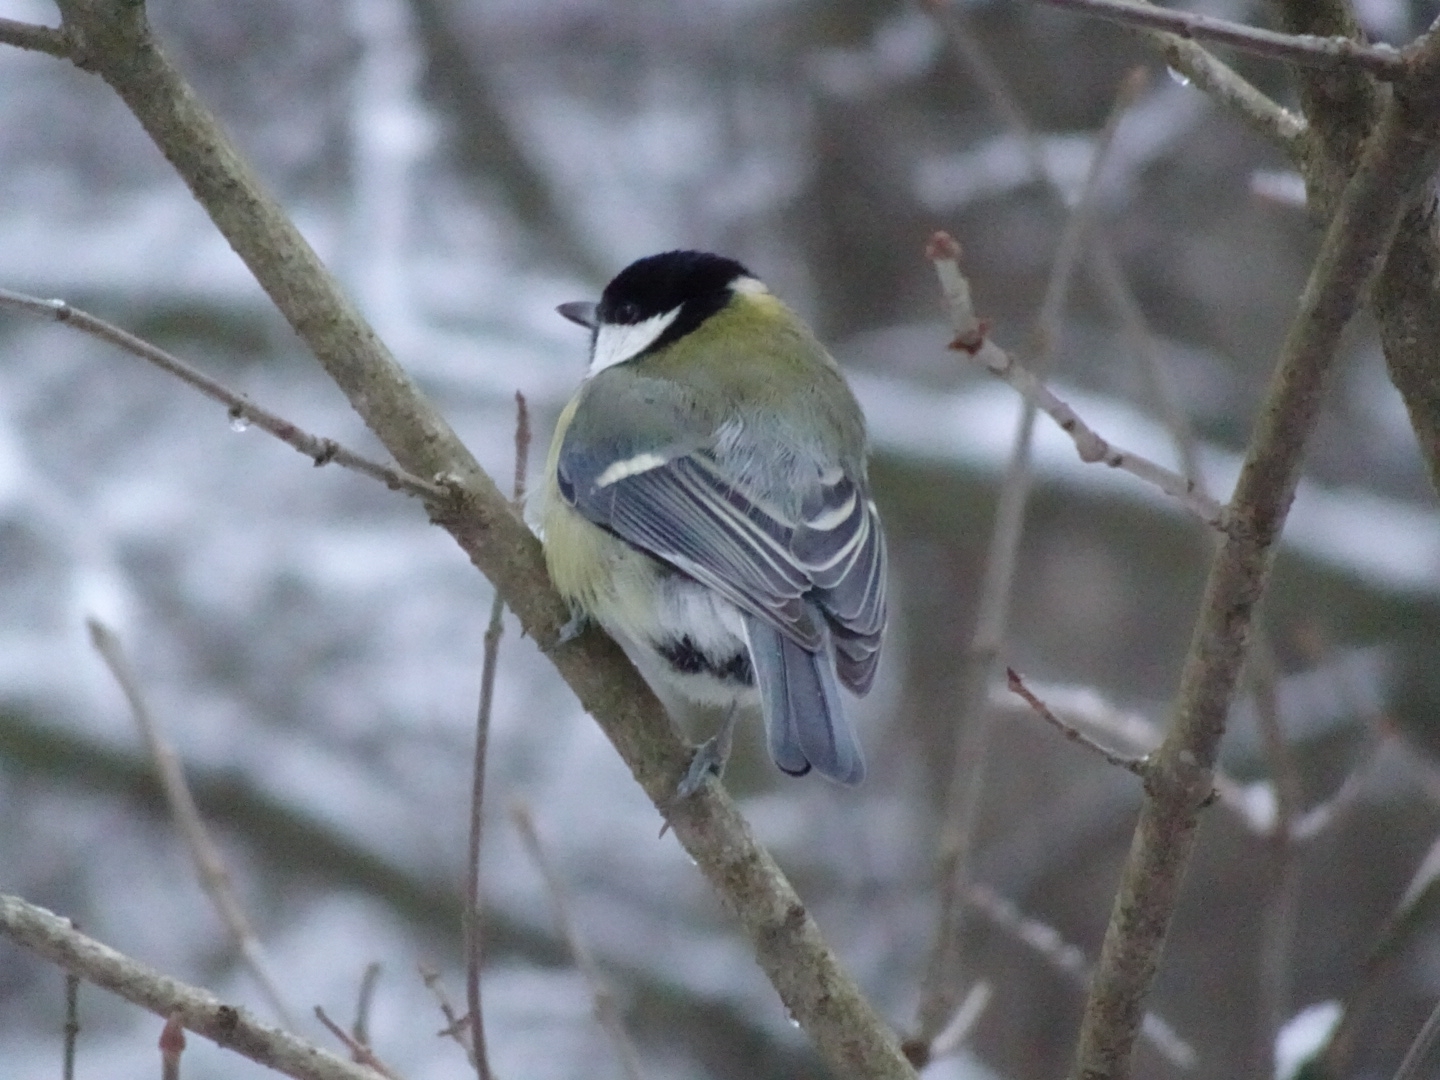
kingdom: Animalia
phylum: Chordata
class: Aves
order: Passeriformes
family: Paridae
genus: Parus
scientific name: Parus major
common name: Great tit
